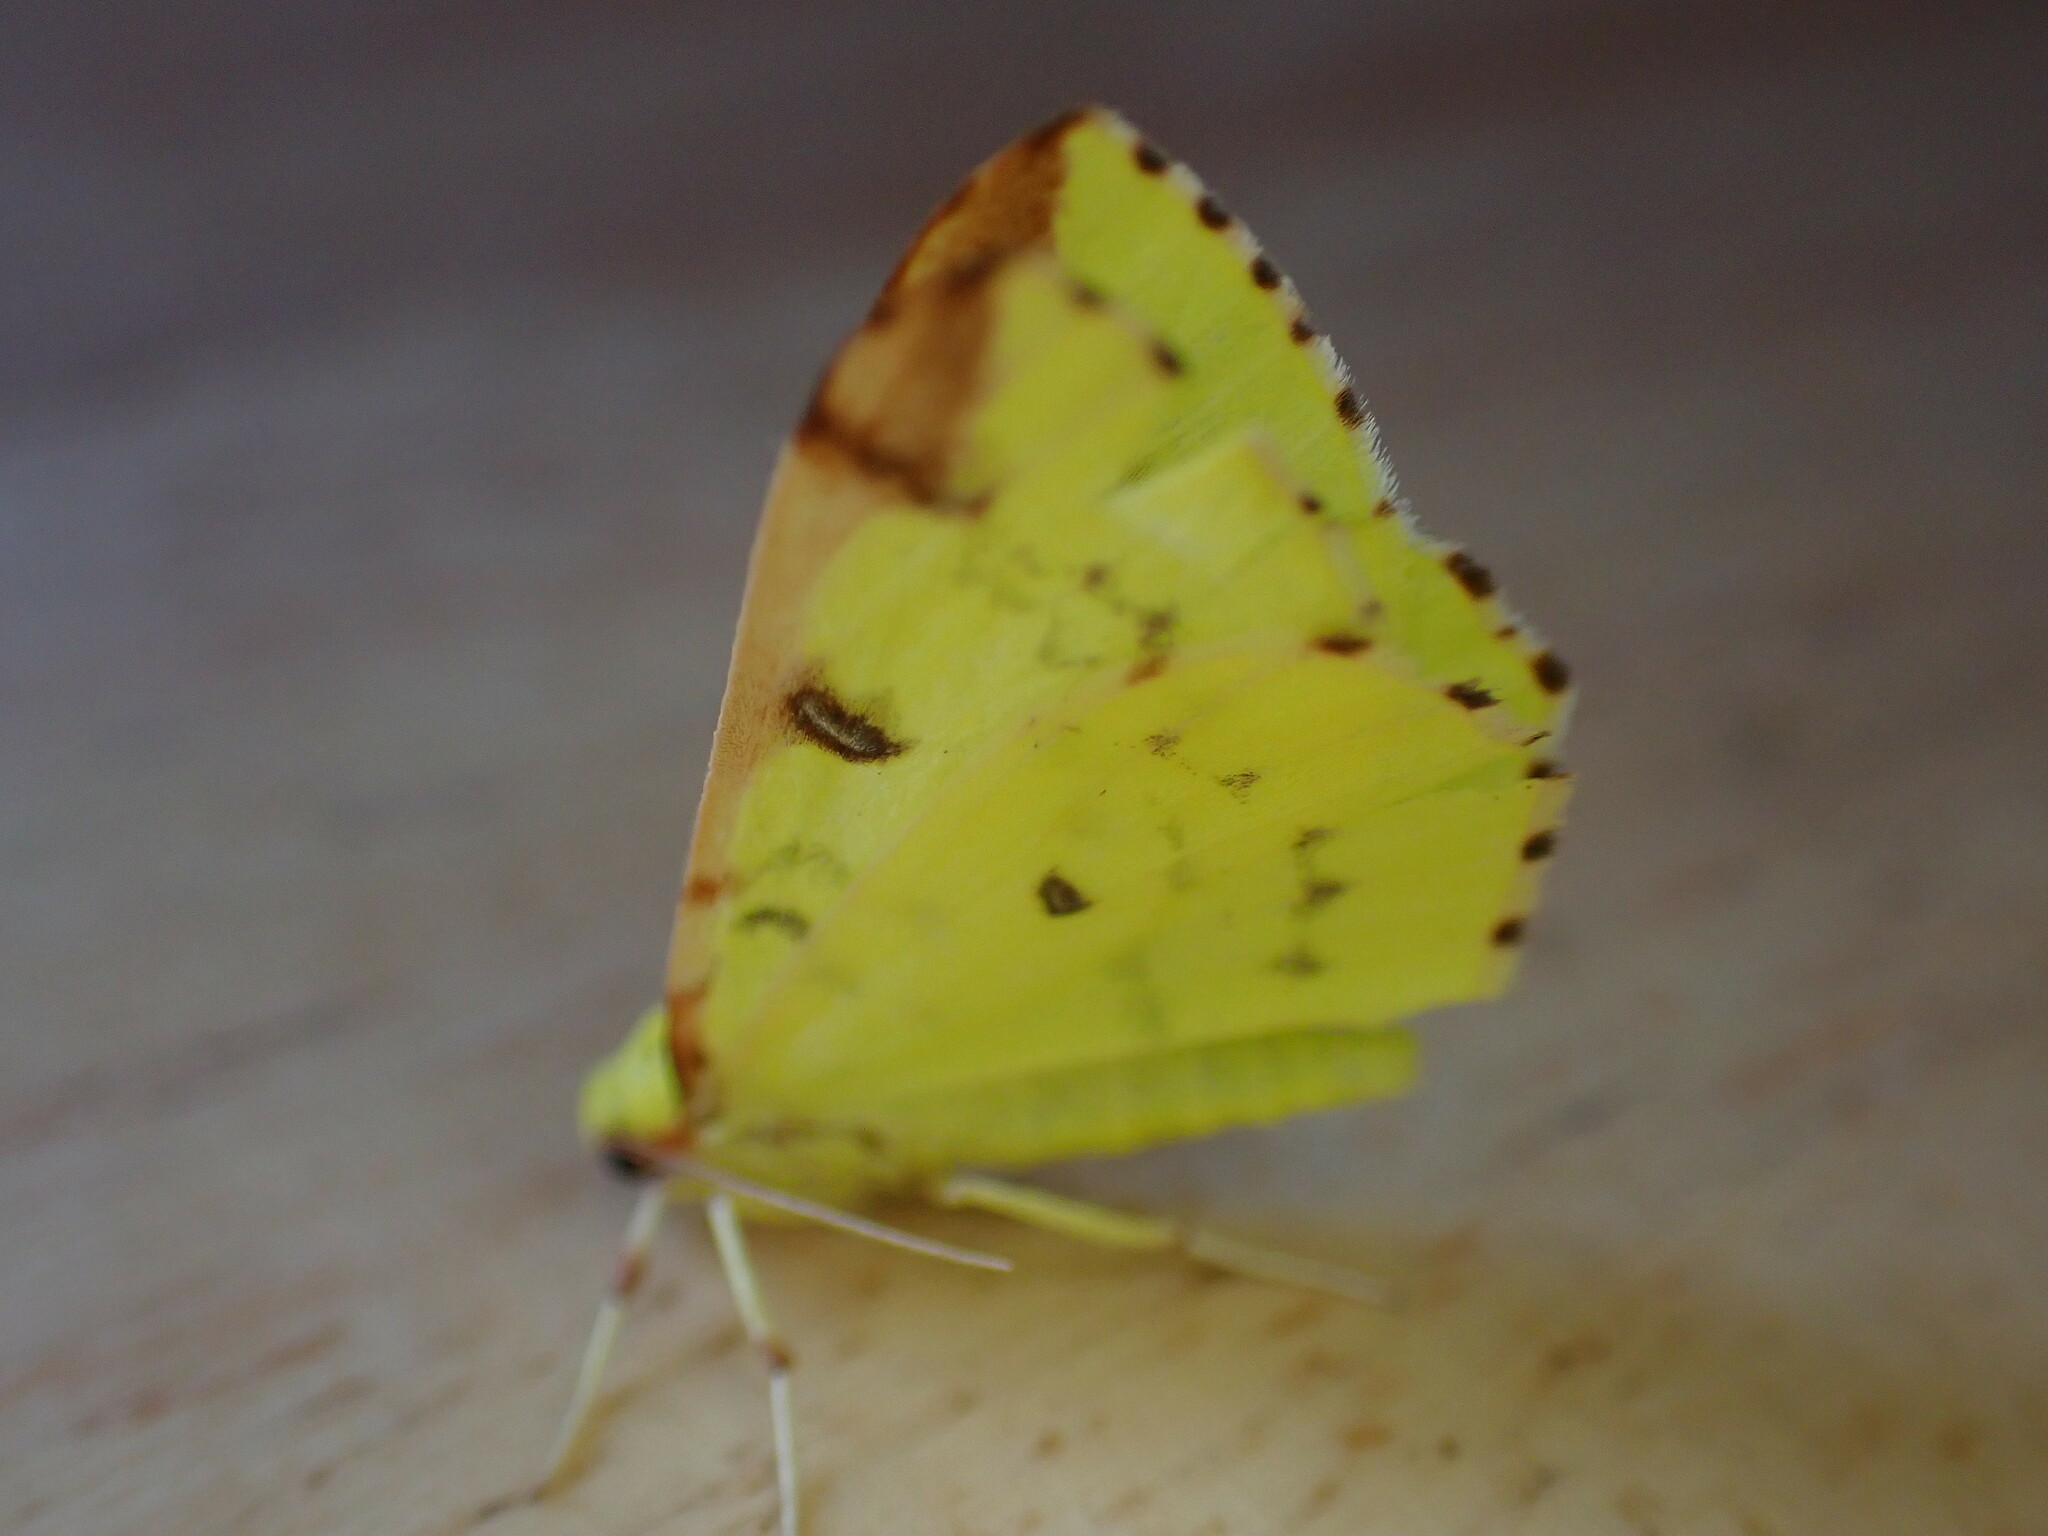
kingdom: Animalia
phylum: Arthropoda
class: Insecta
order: Lepidoptera
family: Geometridae
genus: Opisthograptis
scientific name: Opisthograptis luteolata
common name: Brimstone moth
